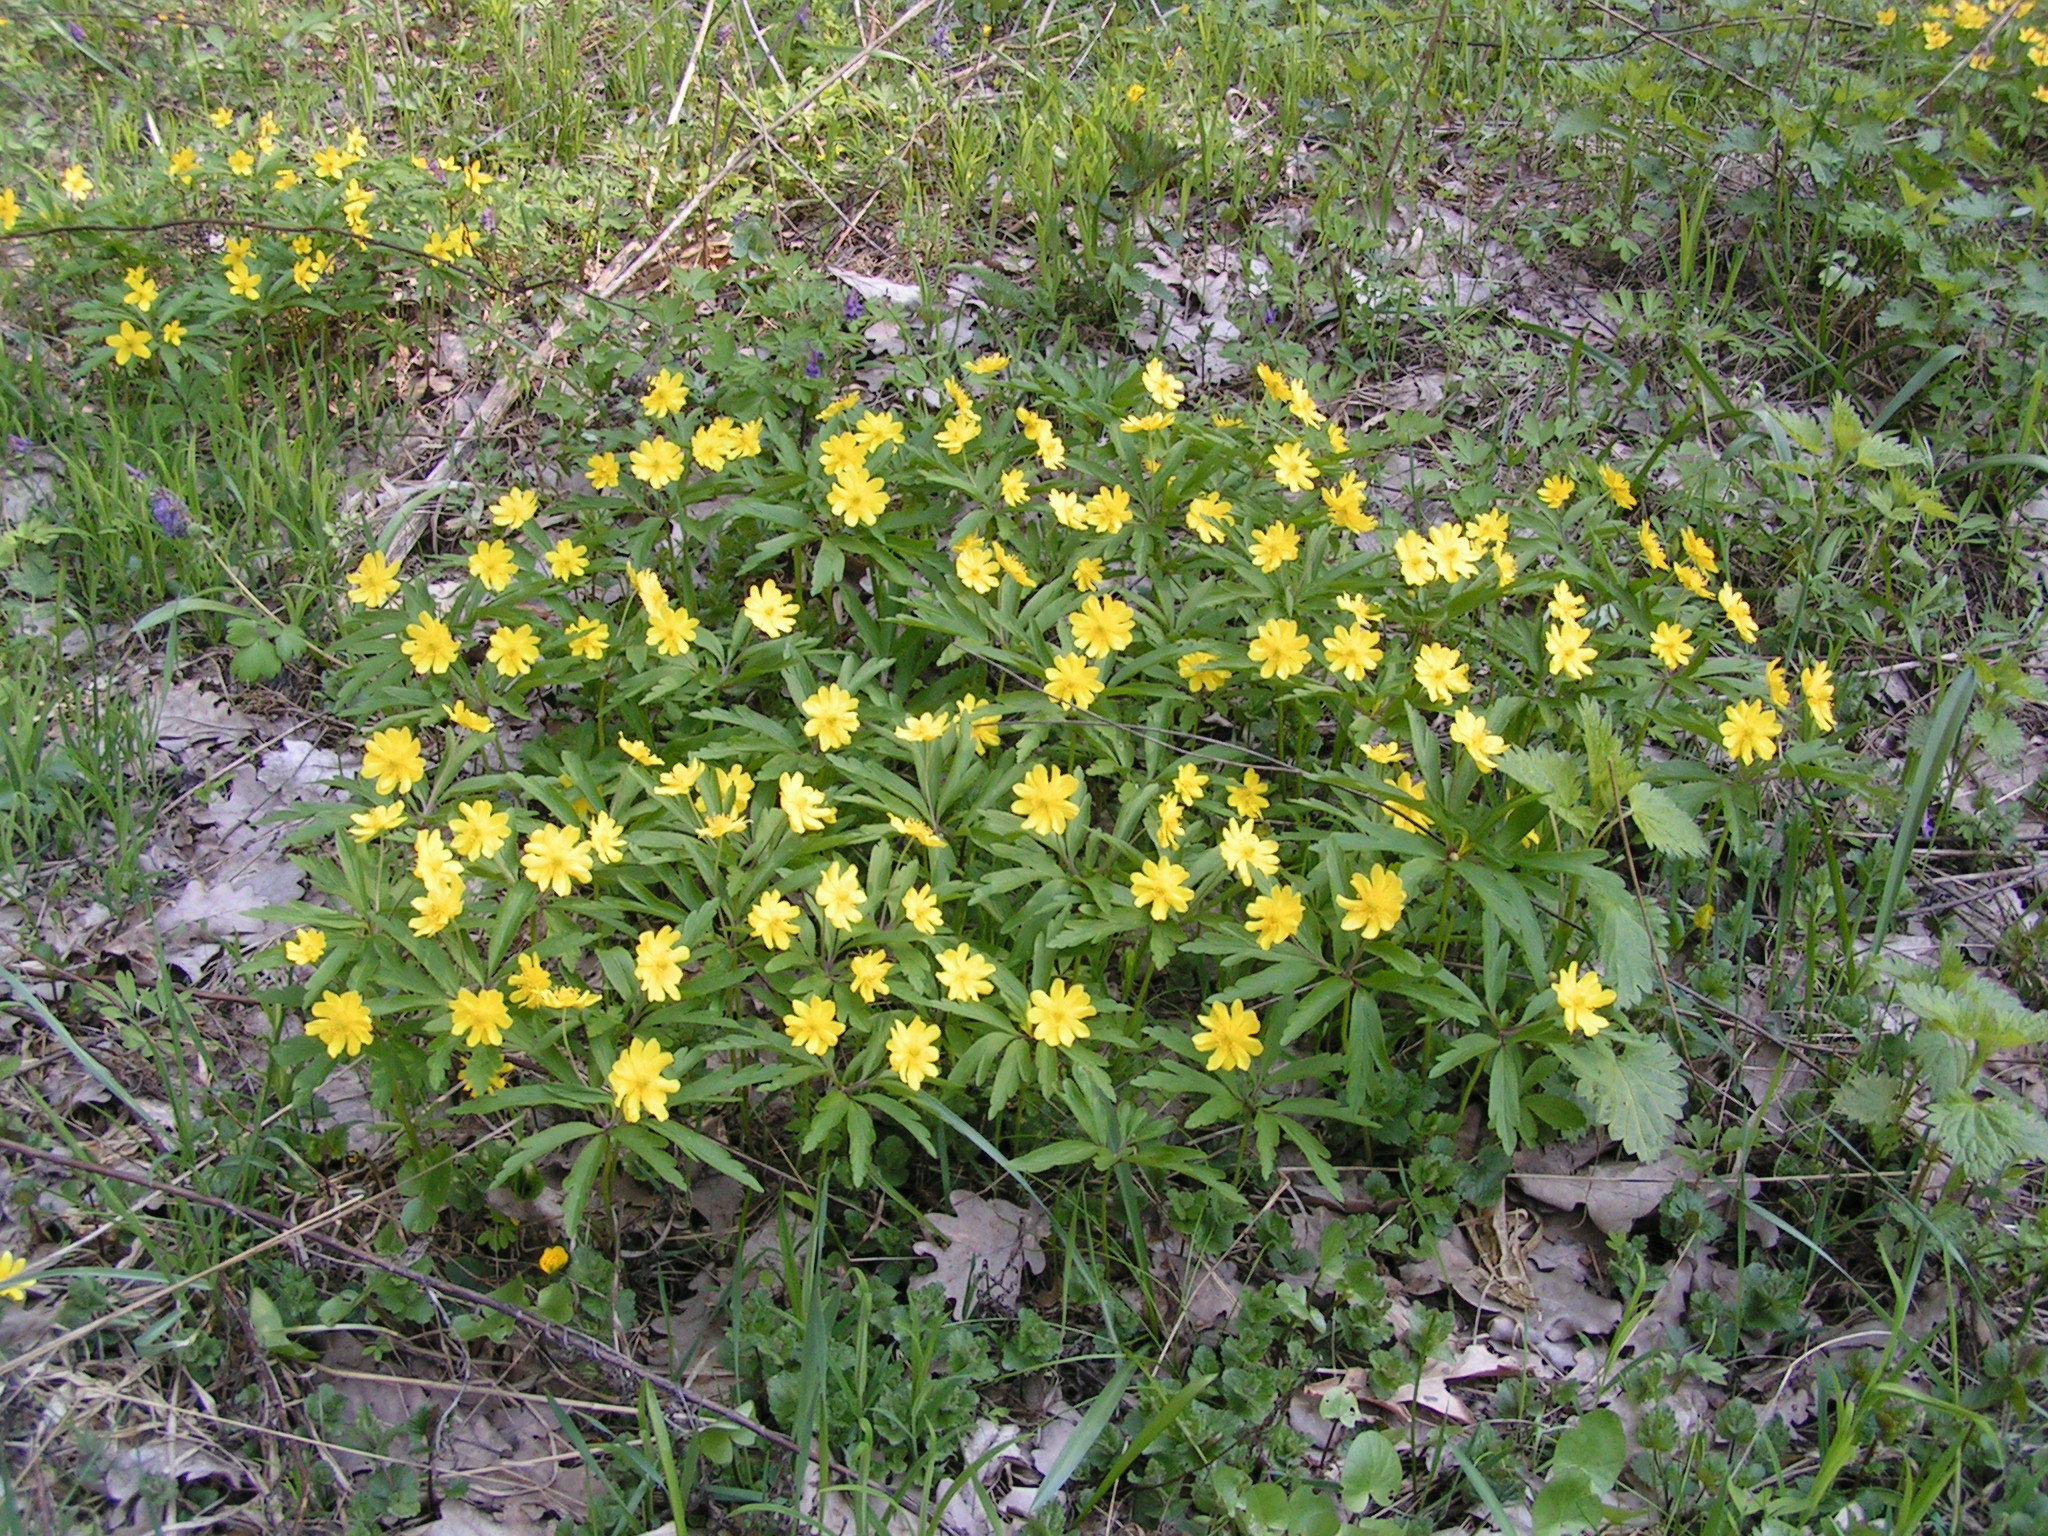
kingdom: Plantae
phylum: Tracheophyta
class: Magnoliopsida
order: Ranunculales
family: Ranunculaceae
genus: Anemone
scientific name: Anemone ranunculoides
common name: Yellow anemone
